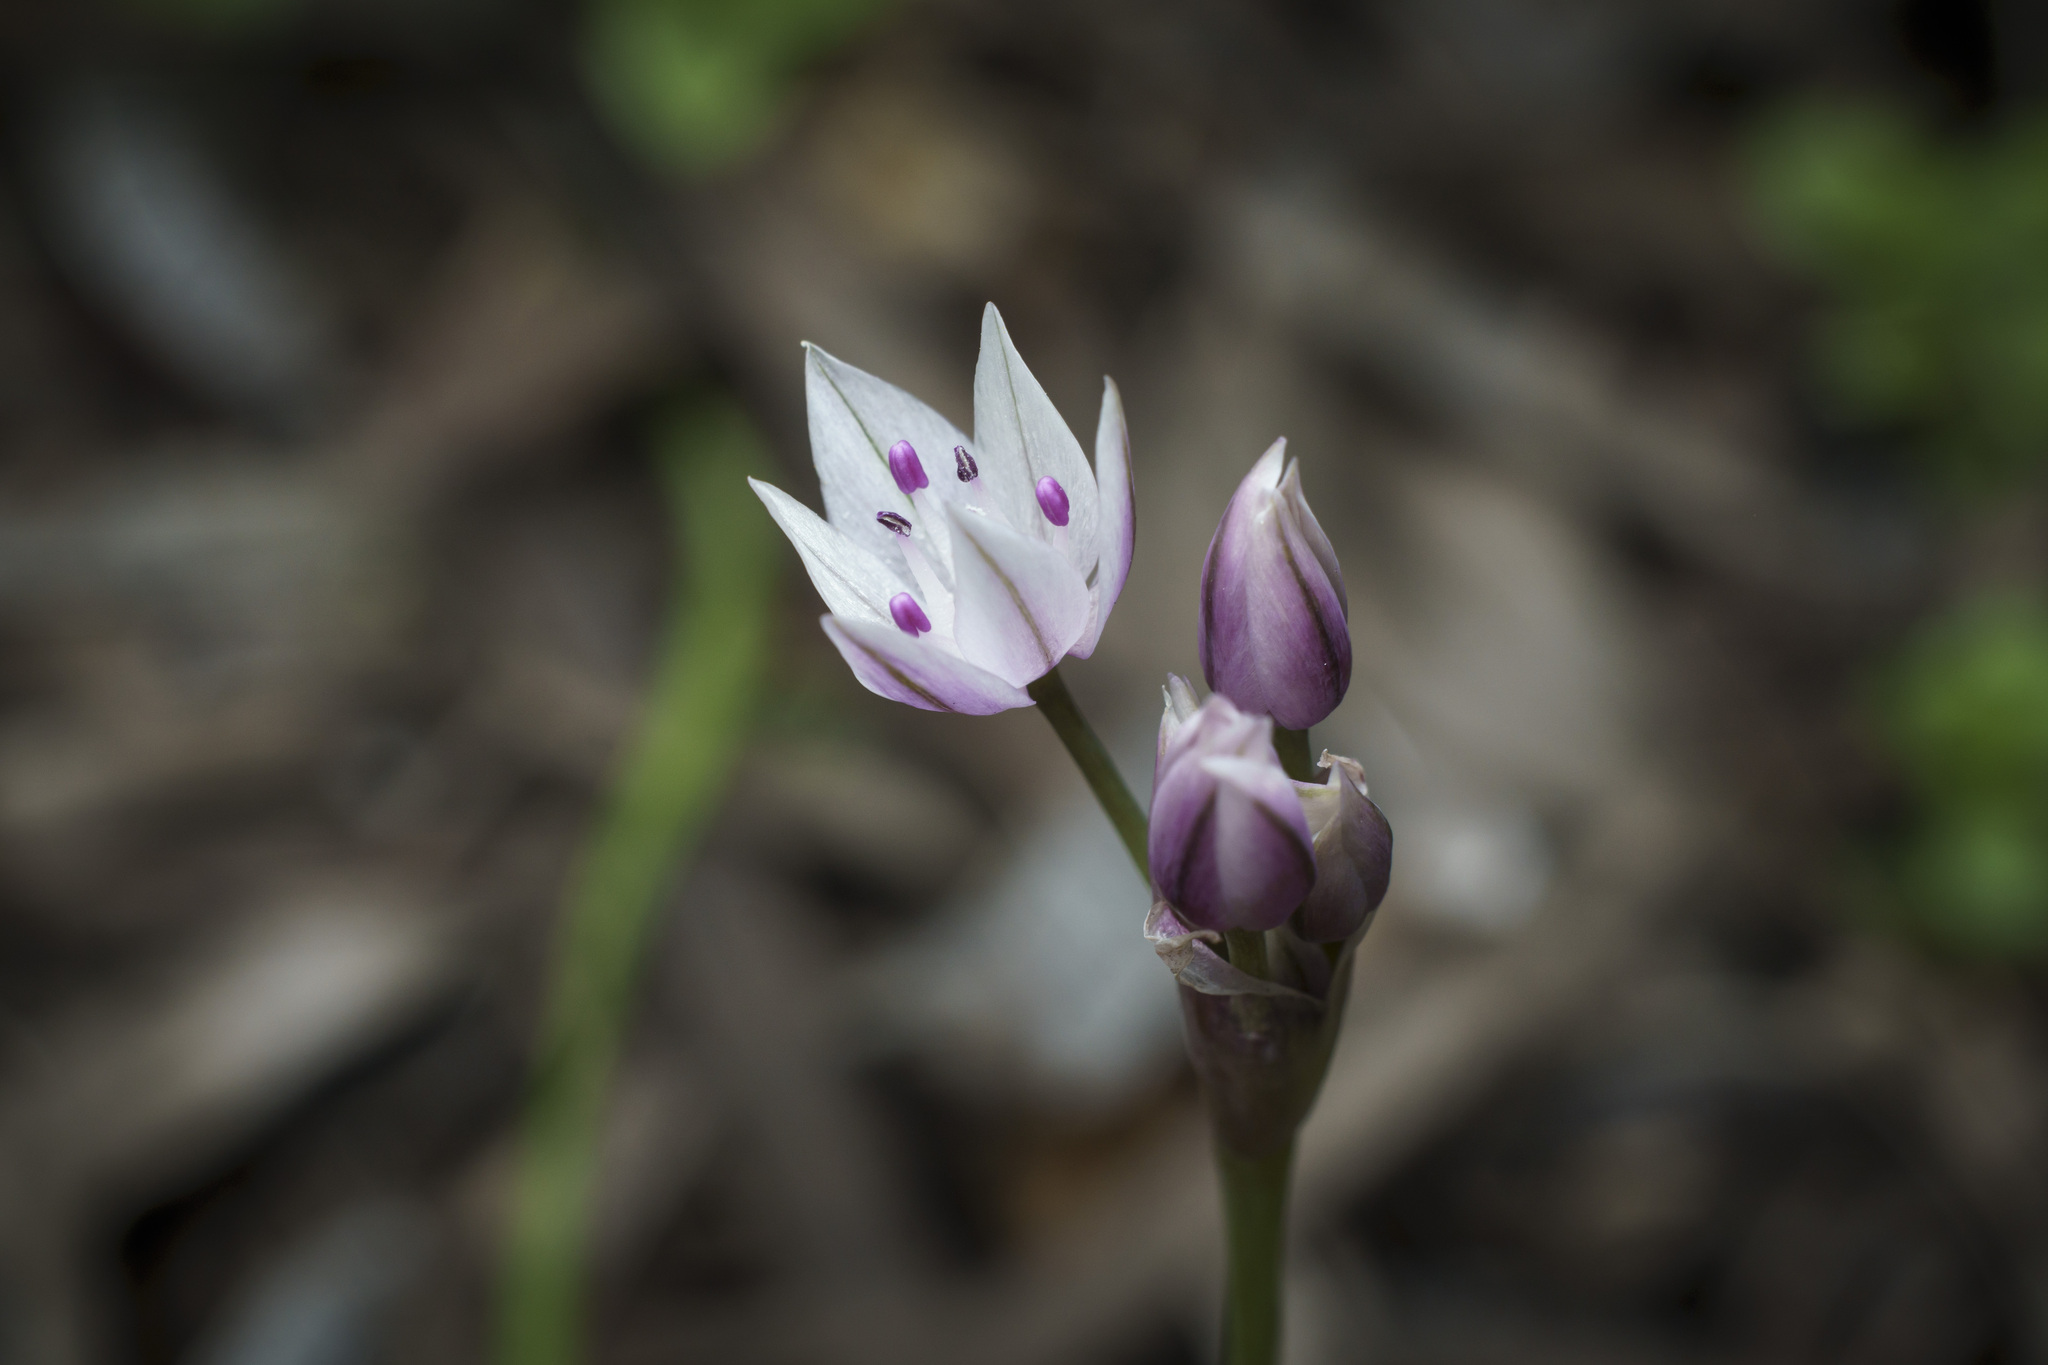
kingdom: Plantae
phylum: Tracheophyta
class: Liliopsida
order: Asparagales
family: Amaryllidaceae
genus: Allium
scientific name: Allium praecox
